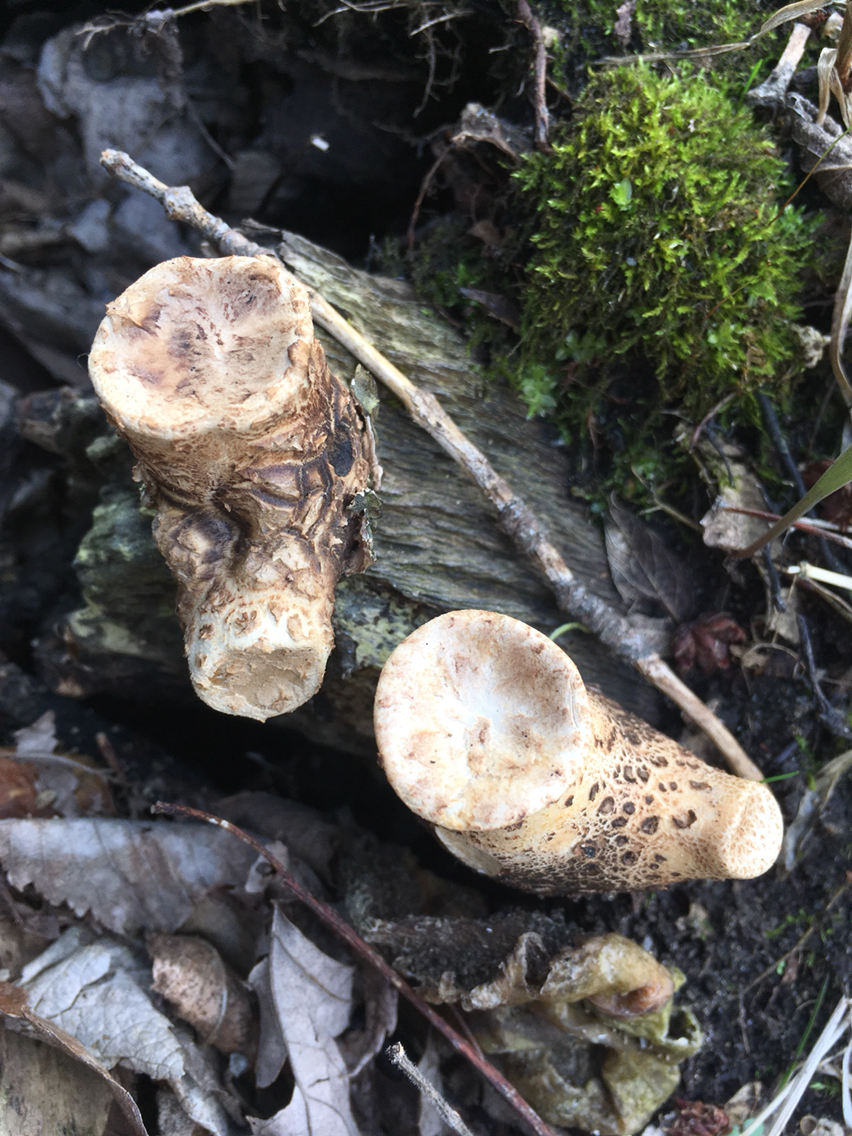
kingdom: Fungi
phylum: Basidiomycota
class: Agaricomycetes
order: Polyporales
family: Polyporaceae
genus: Cerioporus
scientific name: Cerioporus squamosus
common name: Dryad's saddle
